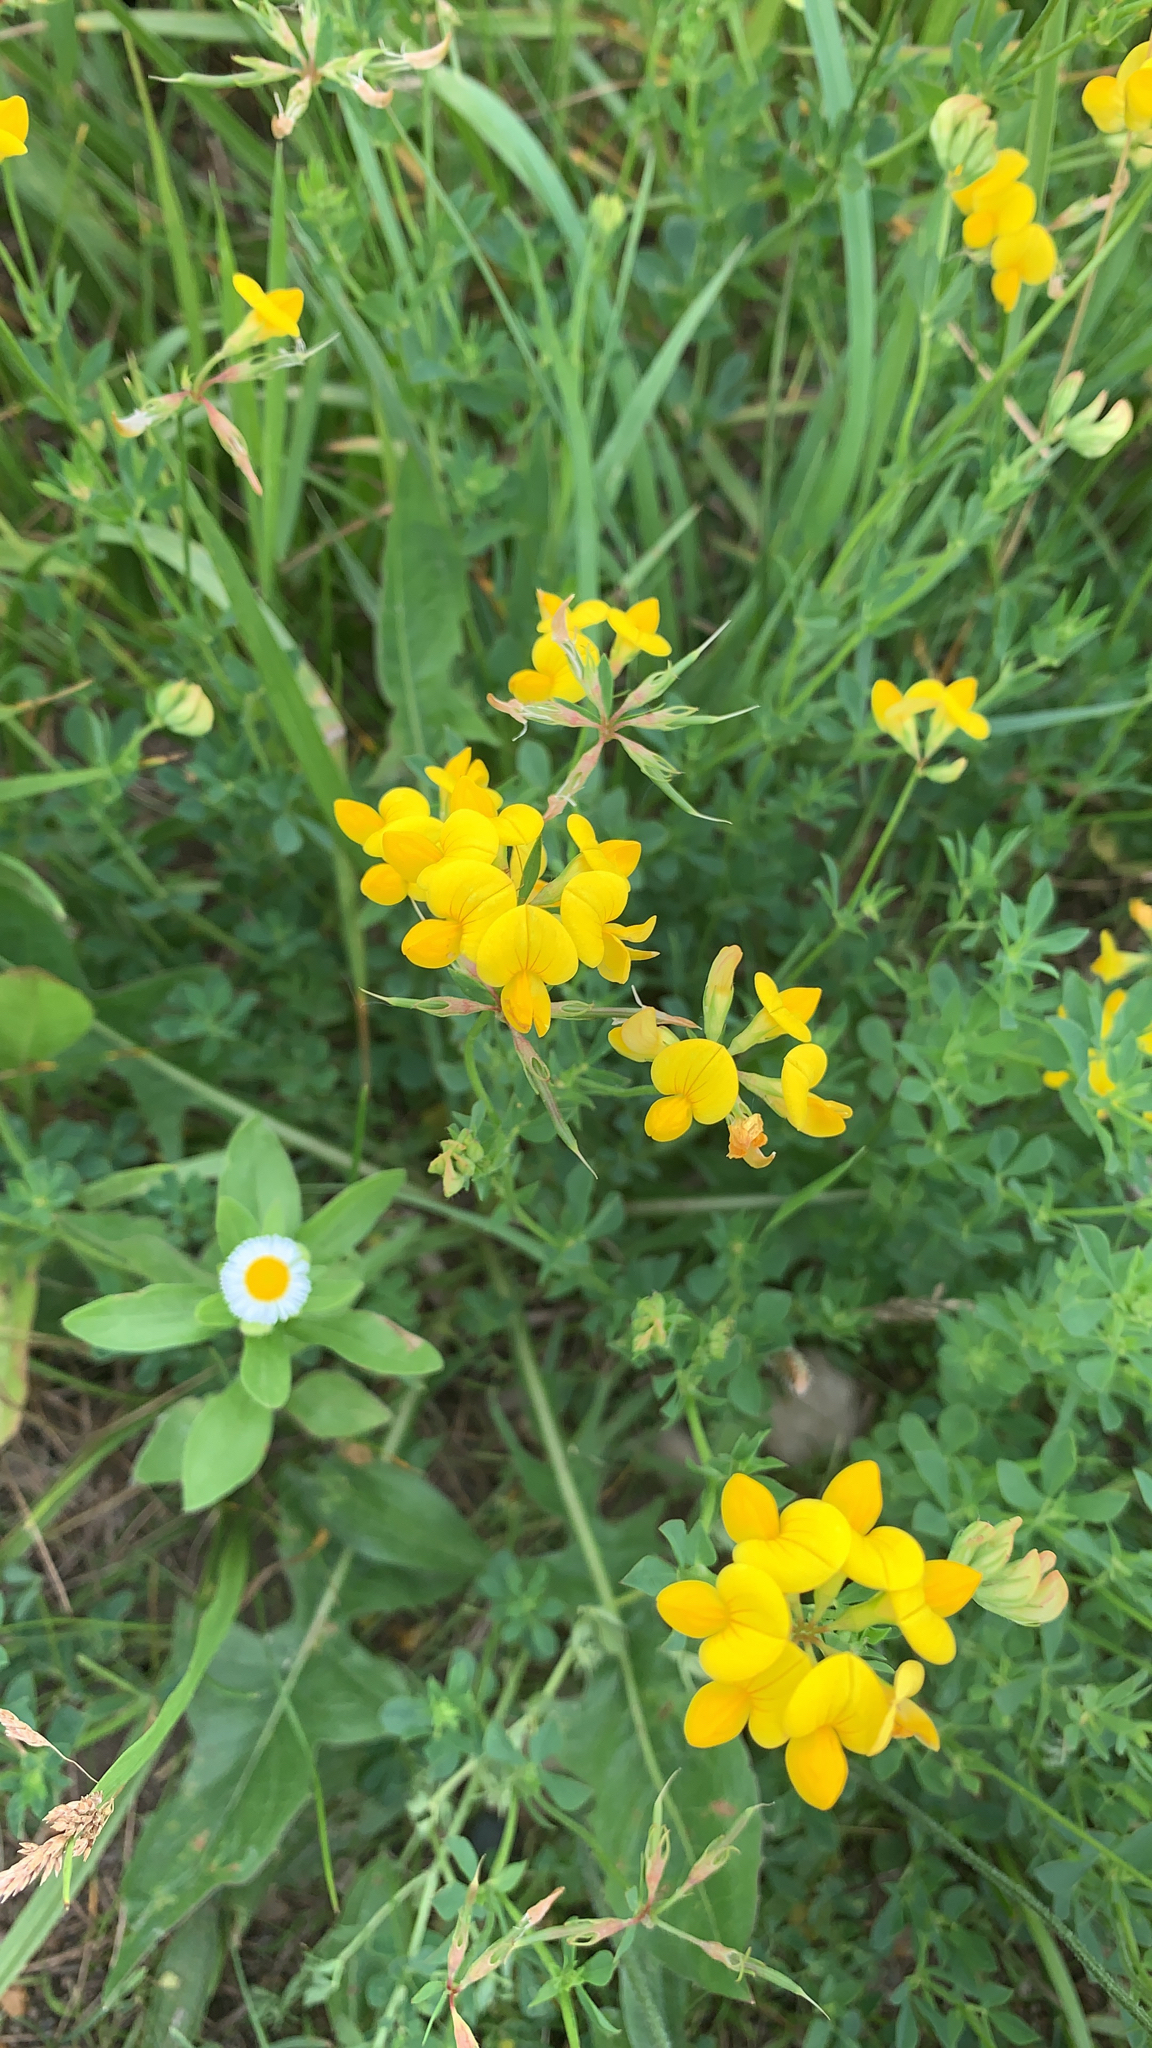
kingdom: Plantae
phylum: Tracheophyta
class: Magnoliopsida
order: Fabales
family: Fabaceae
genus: Lotus
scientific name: Lotus corniculatus
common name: Common bird's-foot-trefoil
